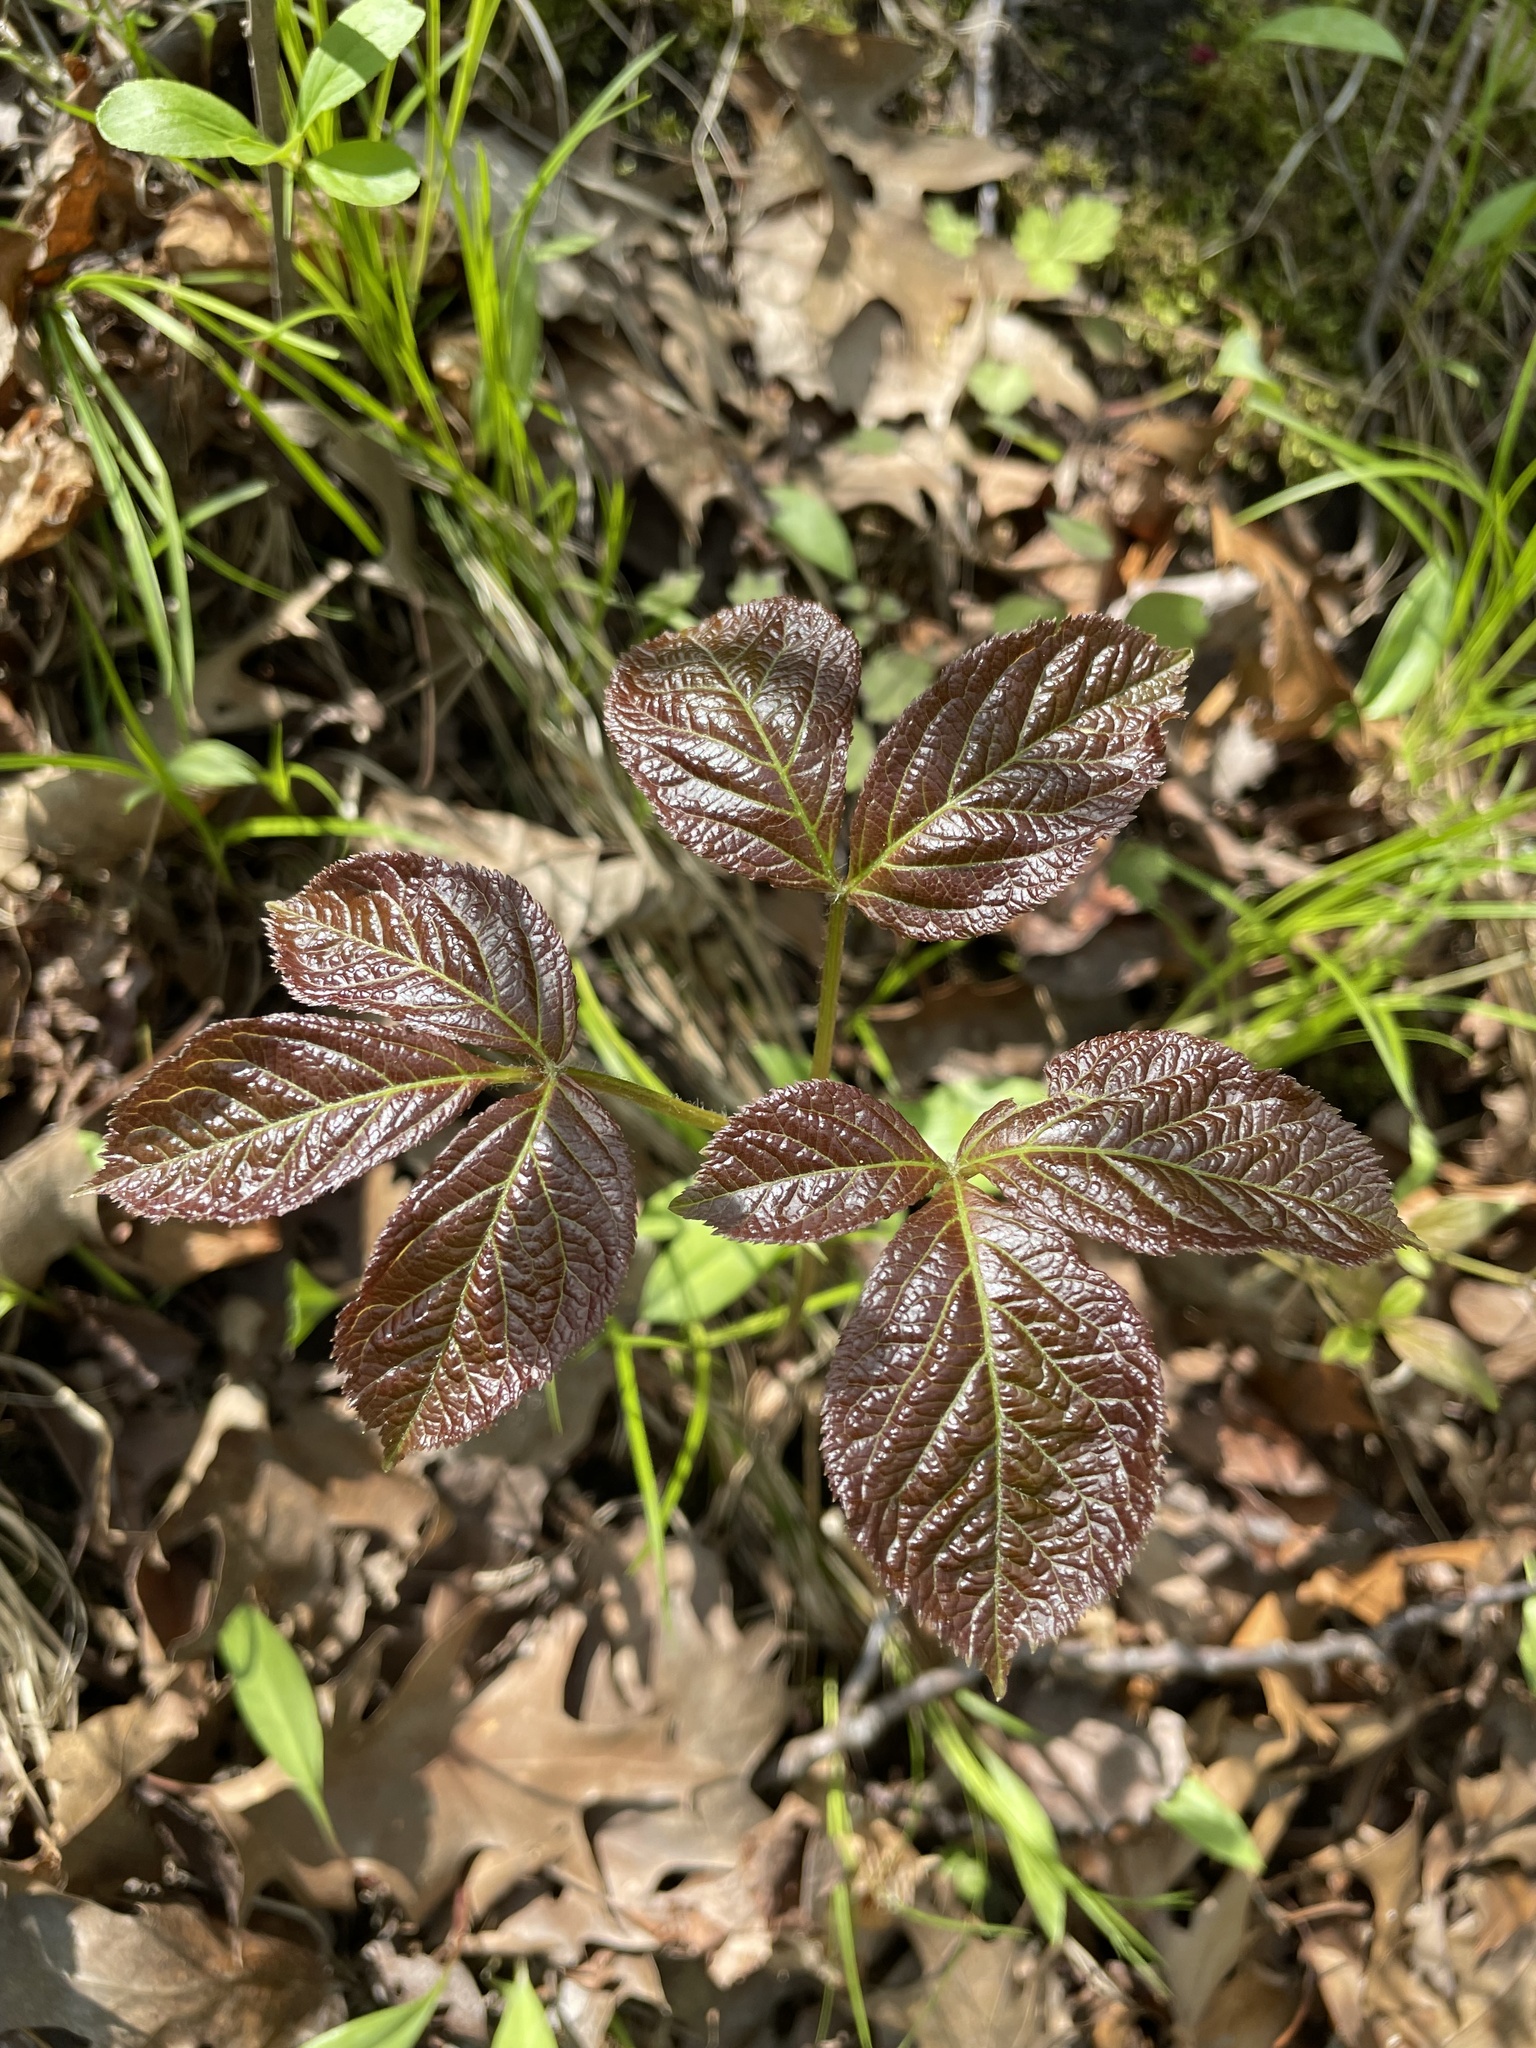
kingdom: Plantae
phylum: Tracheophyta
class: Magnoliopsida
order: Apiales
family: Araliaceae
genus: Aralia
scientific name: Aralia nudicaulis
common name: Wild sarsaparilla
